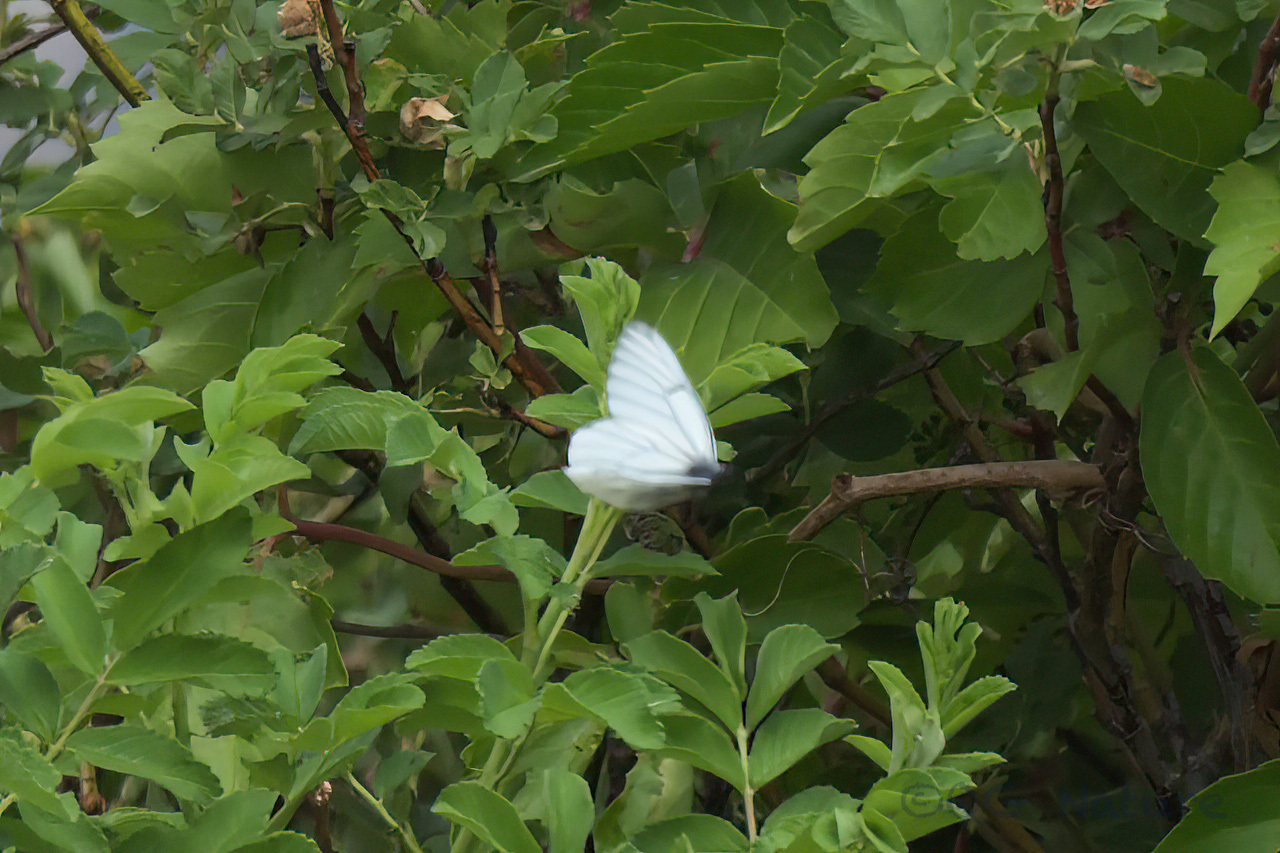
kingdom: Animalia
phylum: Arthropoda
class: Insecta
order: Lepidoptera
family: Pieridae
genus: Aporia
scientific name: Aporia crataegi
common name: Black-veined white
